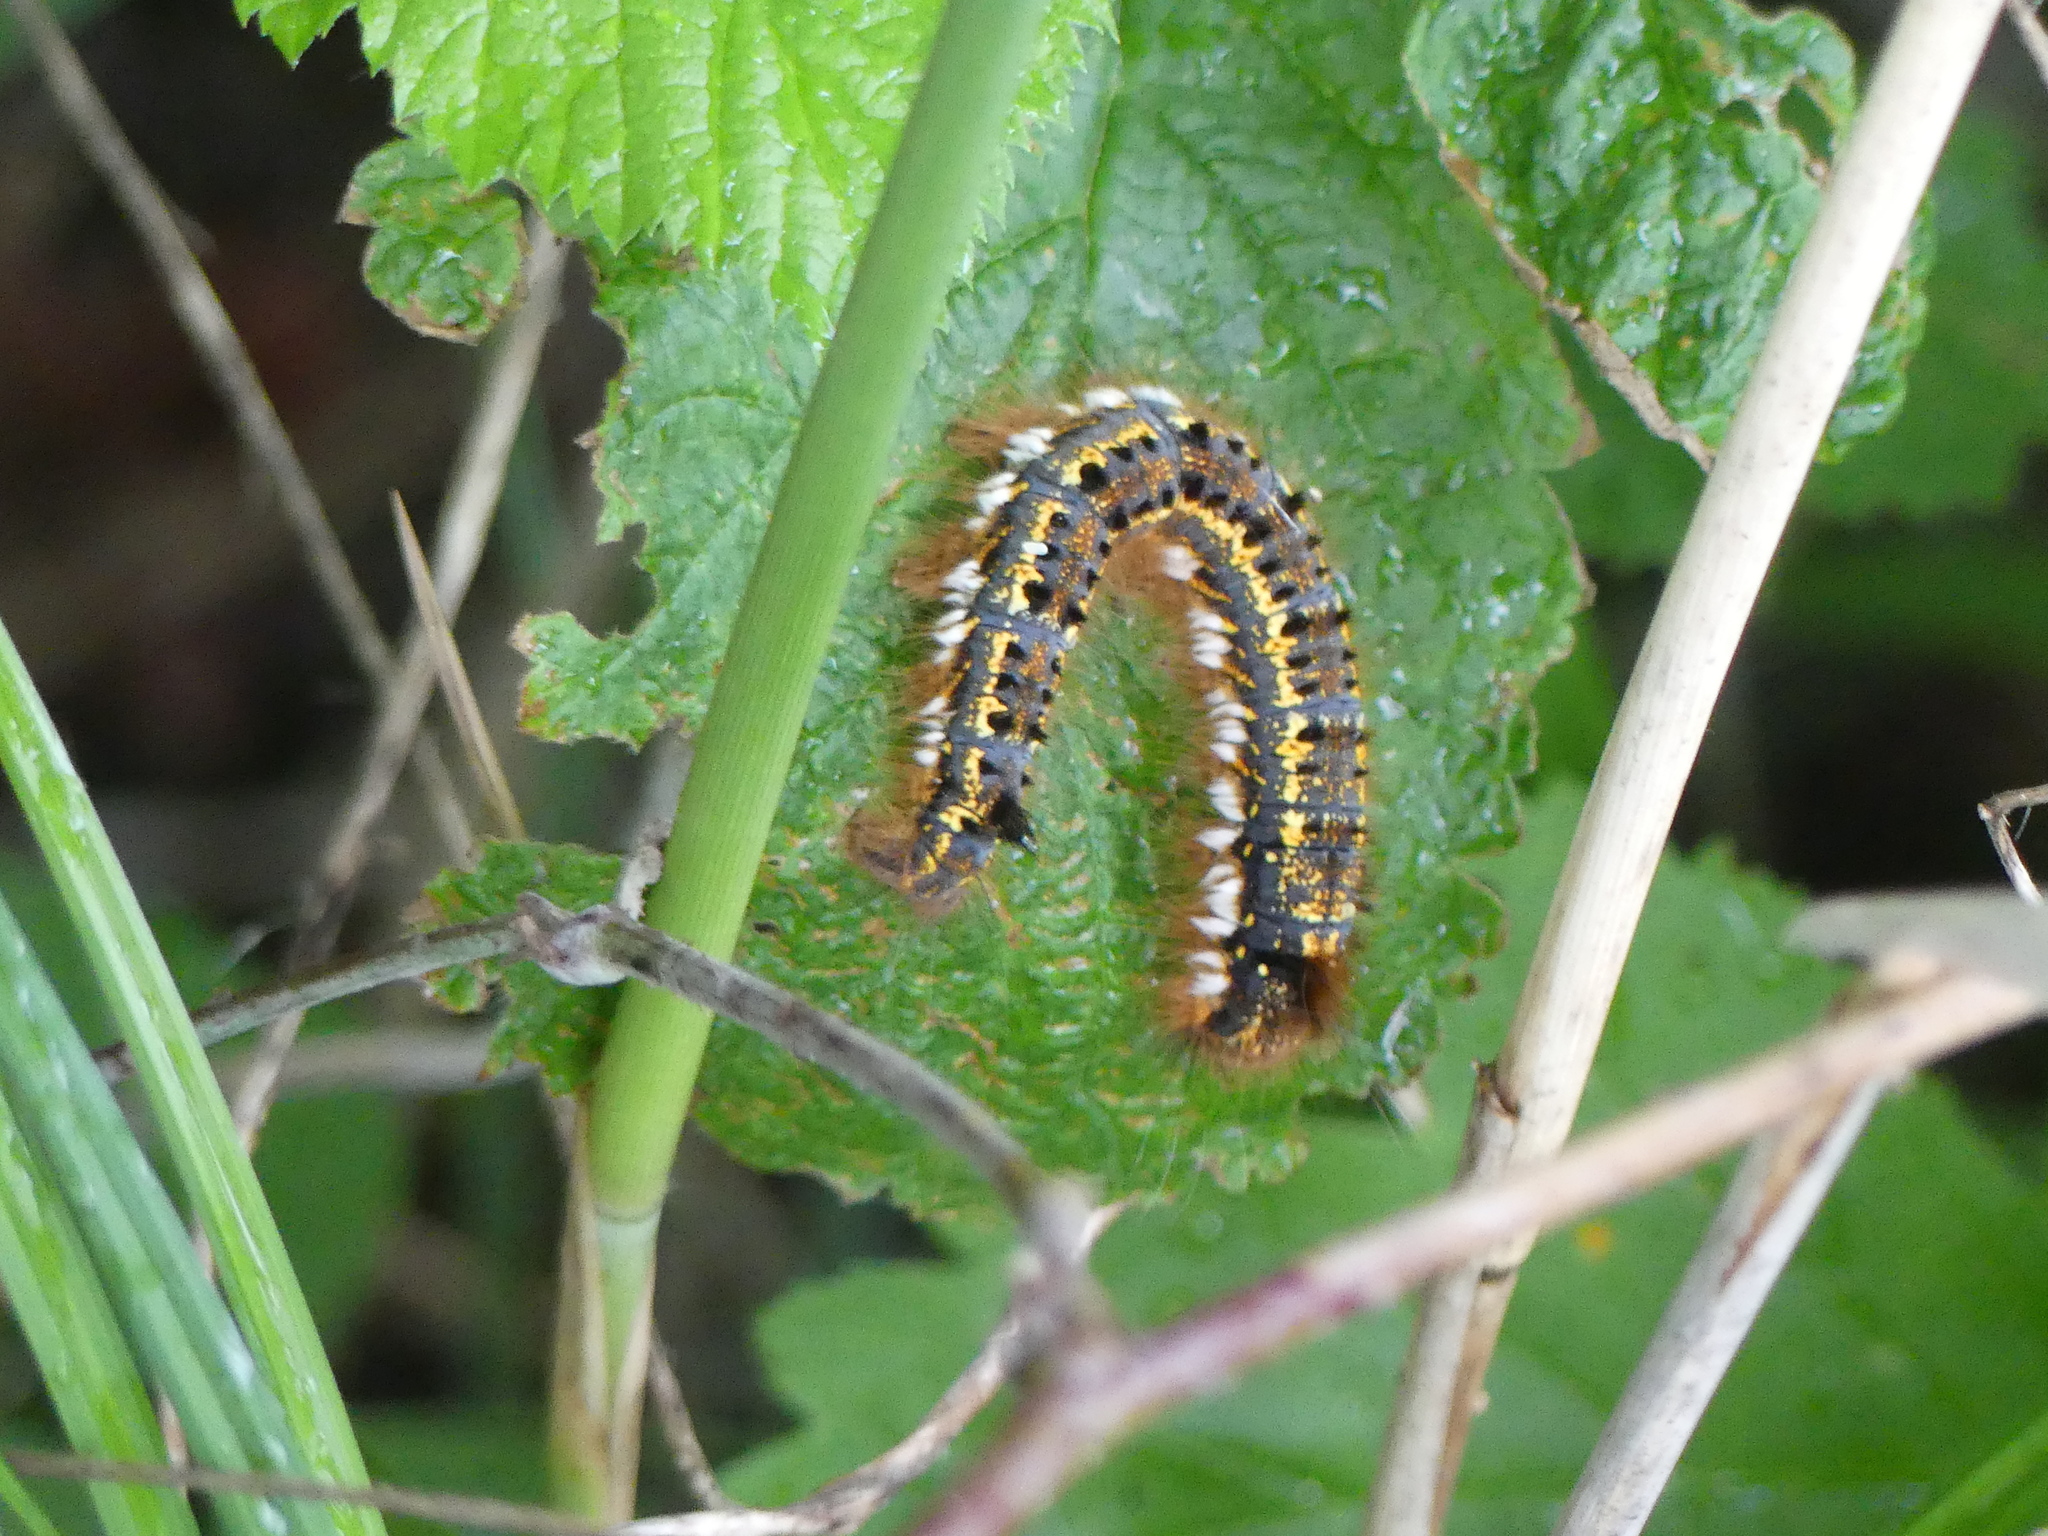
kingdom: Animalia
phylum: Arthropoda
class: Insecta
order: Lepidoptera
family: Lasiocampidae
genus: Euthrix
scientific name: Euthrix potatoria
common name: Drinker
